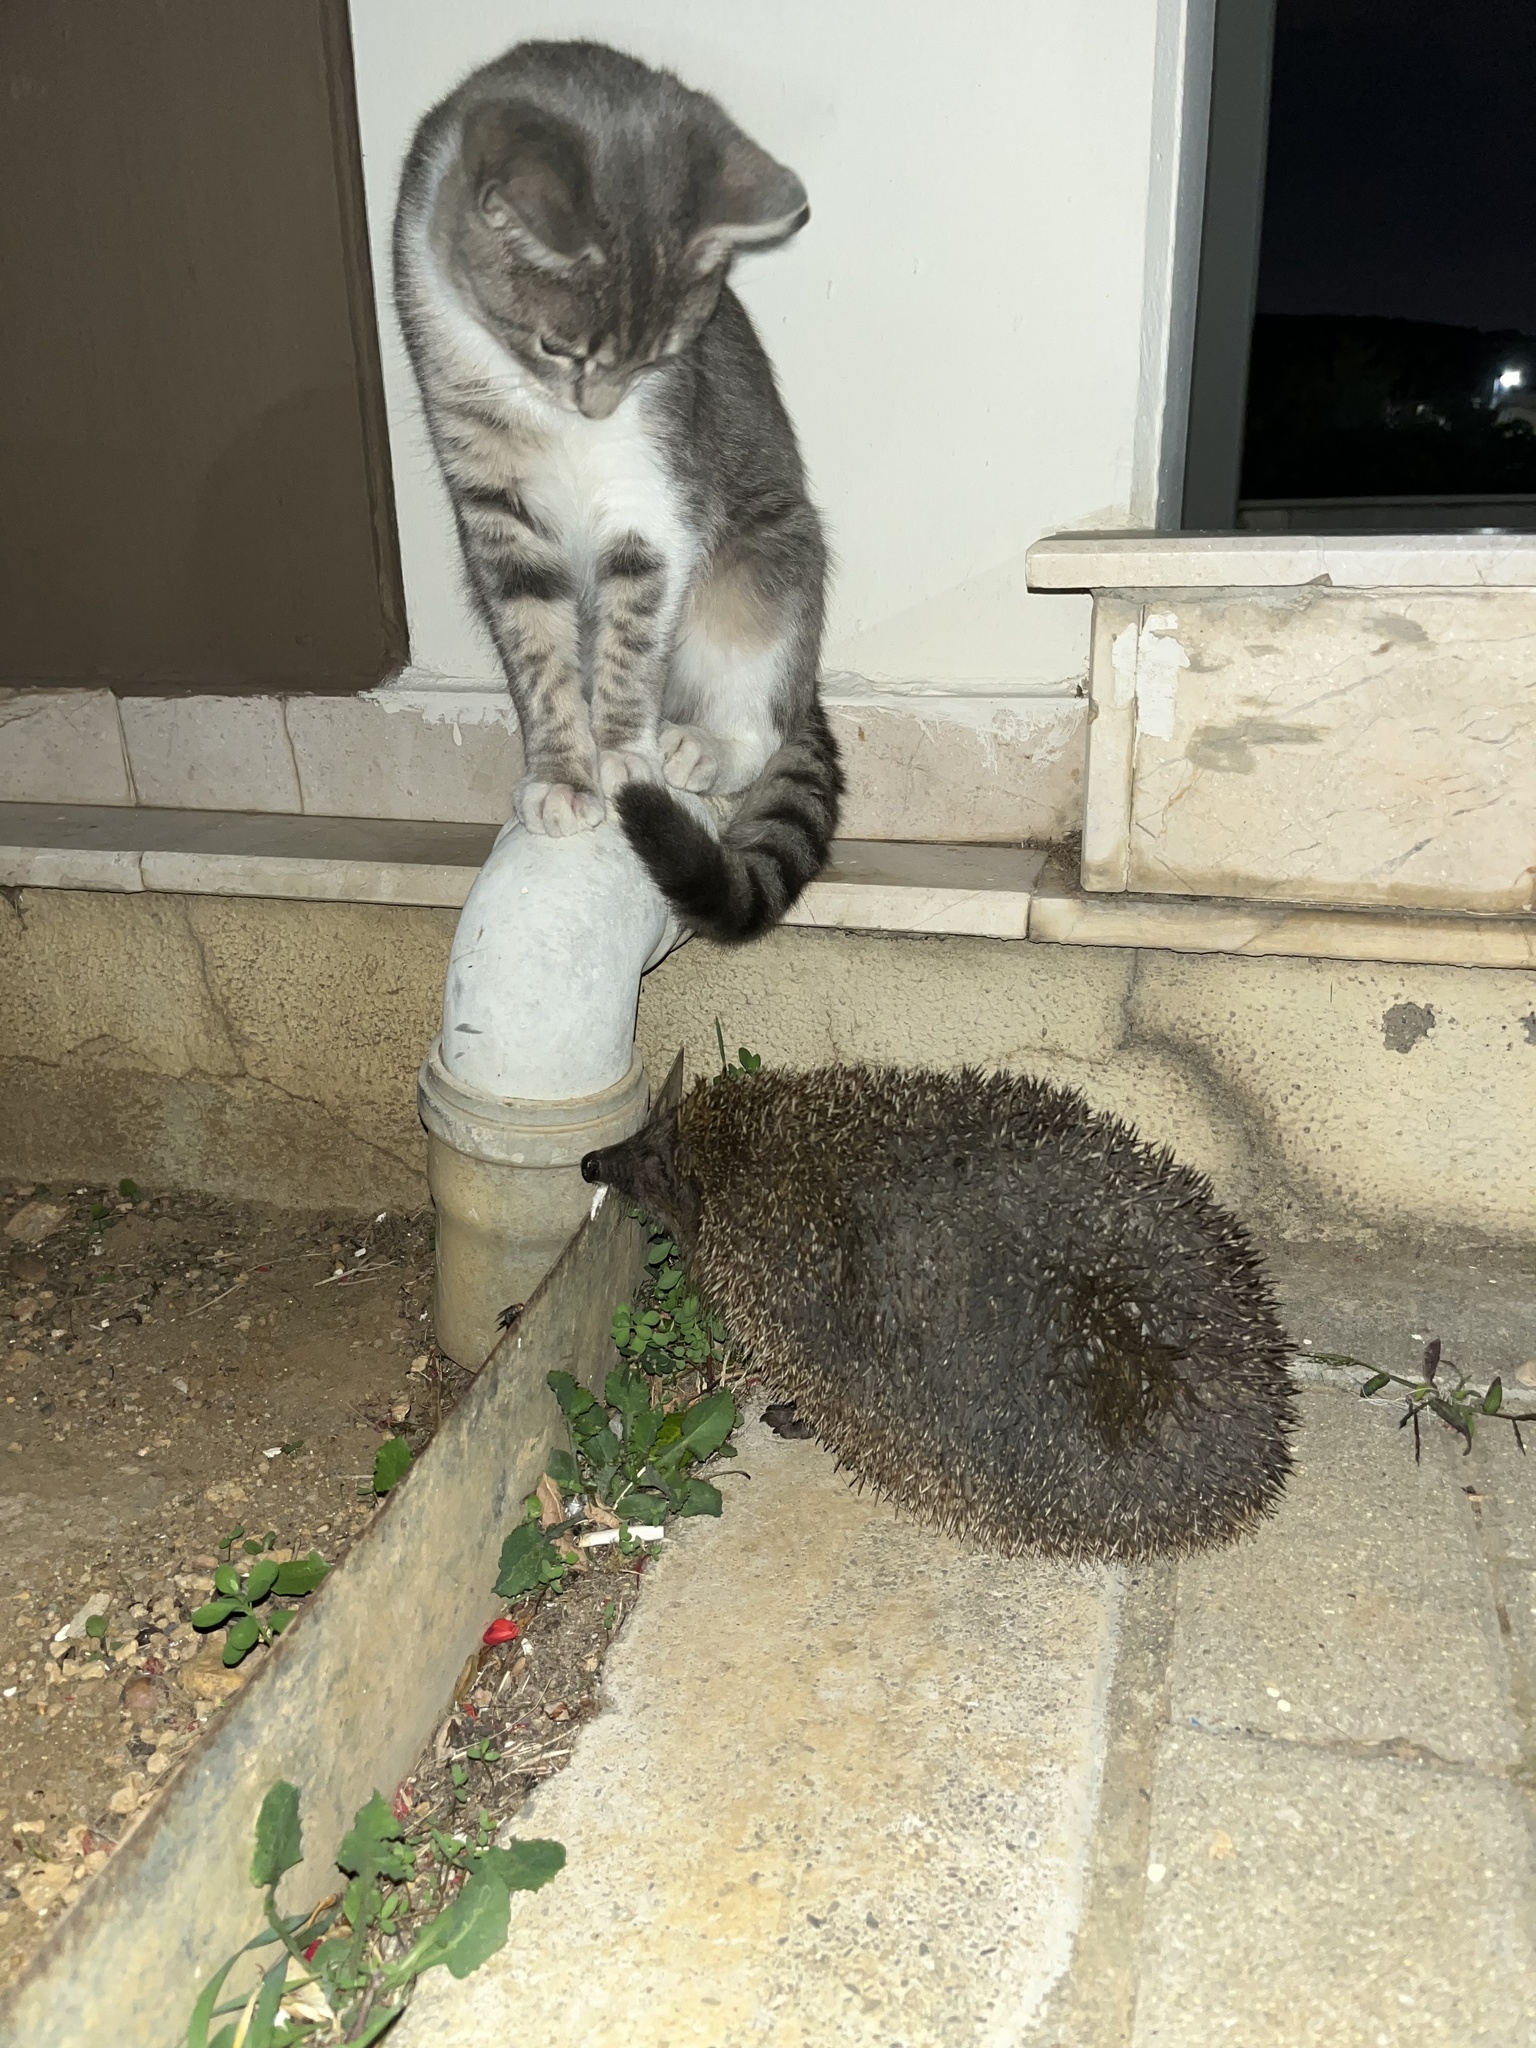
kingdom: Animalia
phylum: Chordata
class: Mammalia
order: Erinaceomorpha
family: Erinaceidae
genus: Erinaceus
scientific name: Erinaceus concolor
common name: Southern white-breasted hedgehog
